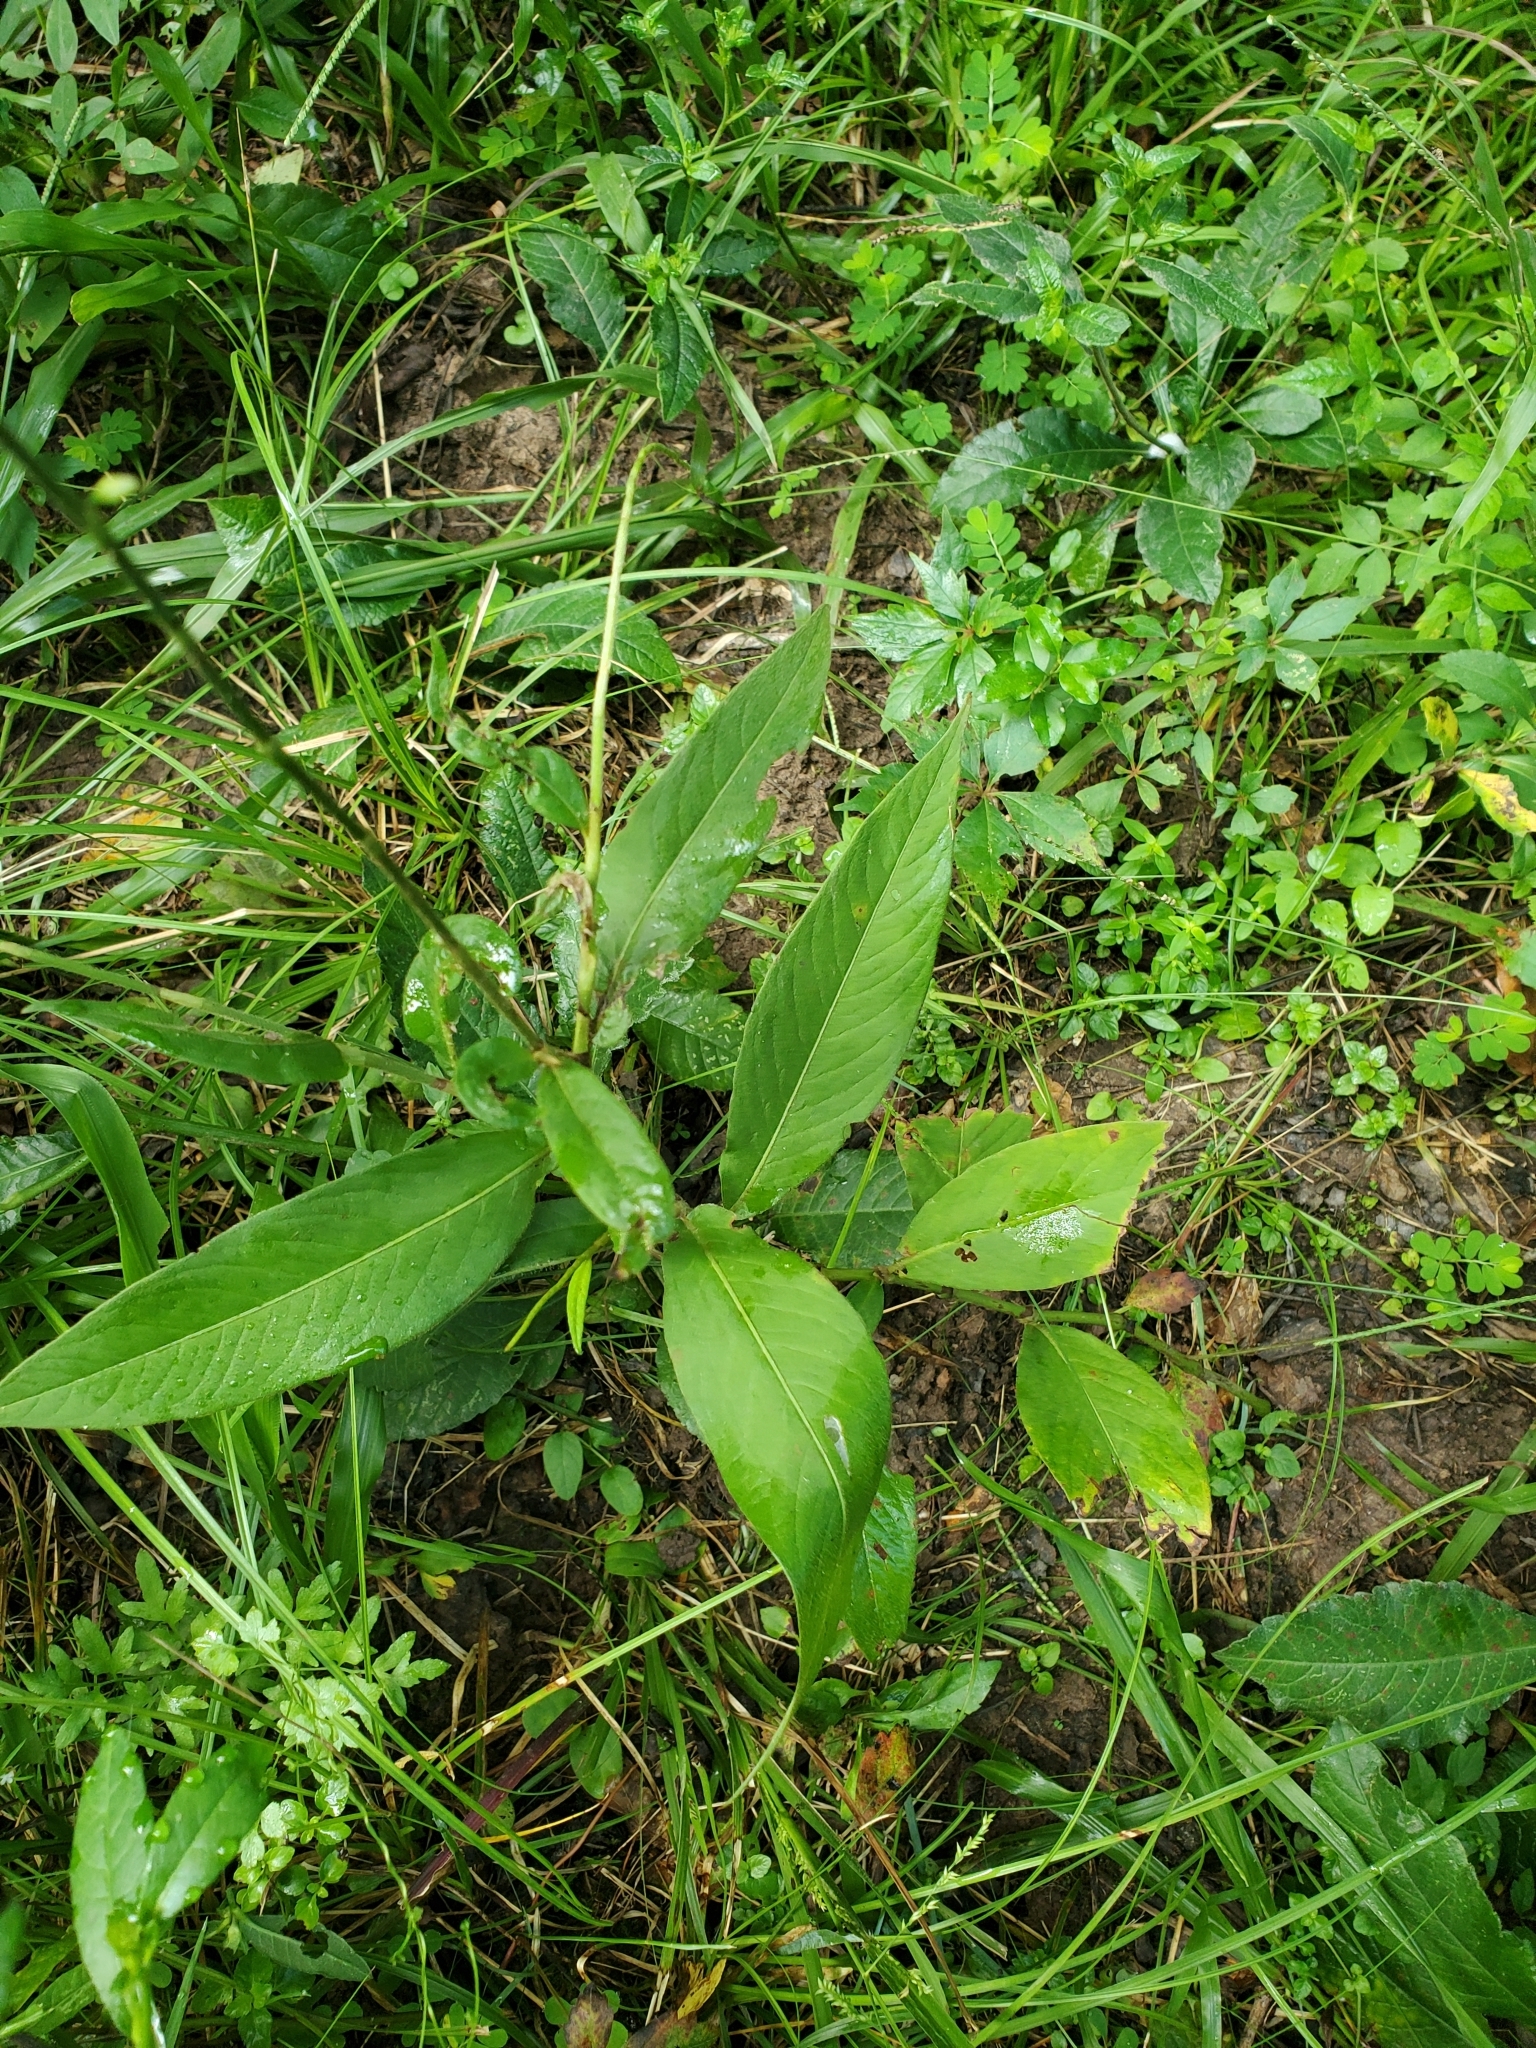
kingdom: Plantae
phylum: Tracheophyta
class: Magnoliopsida
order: Caryophyllales
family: Polygonaceae
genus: Persicaria
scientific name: Persicaria virginiana
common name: Jumpseed
